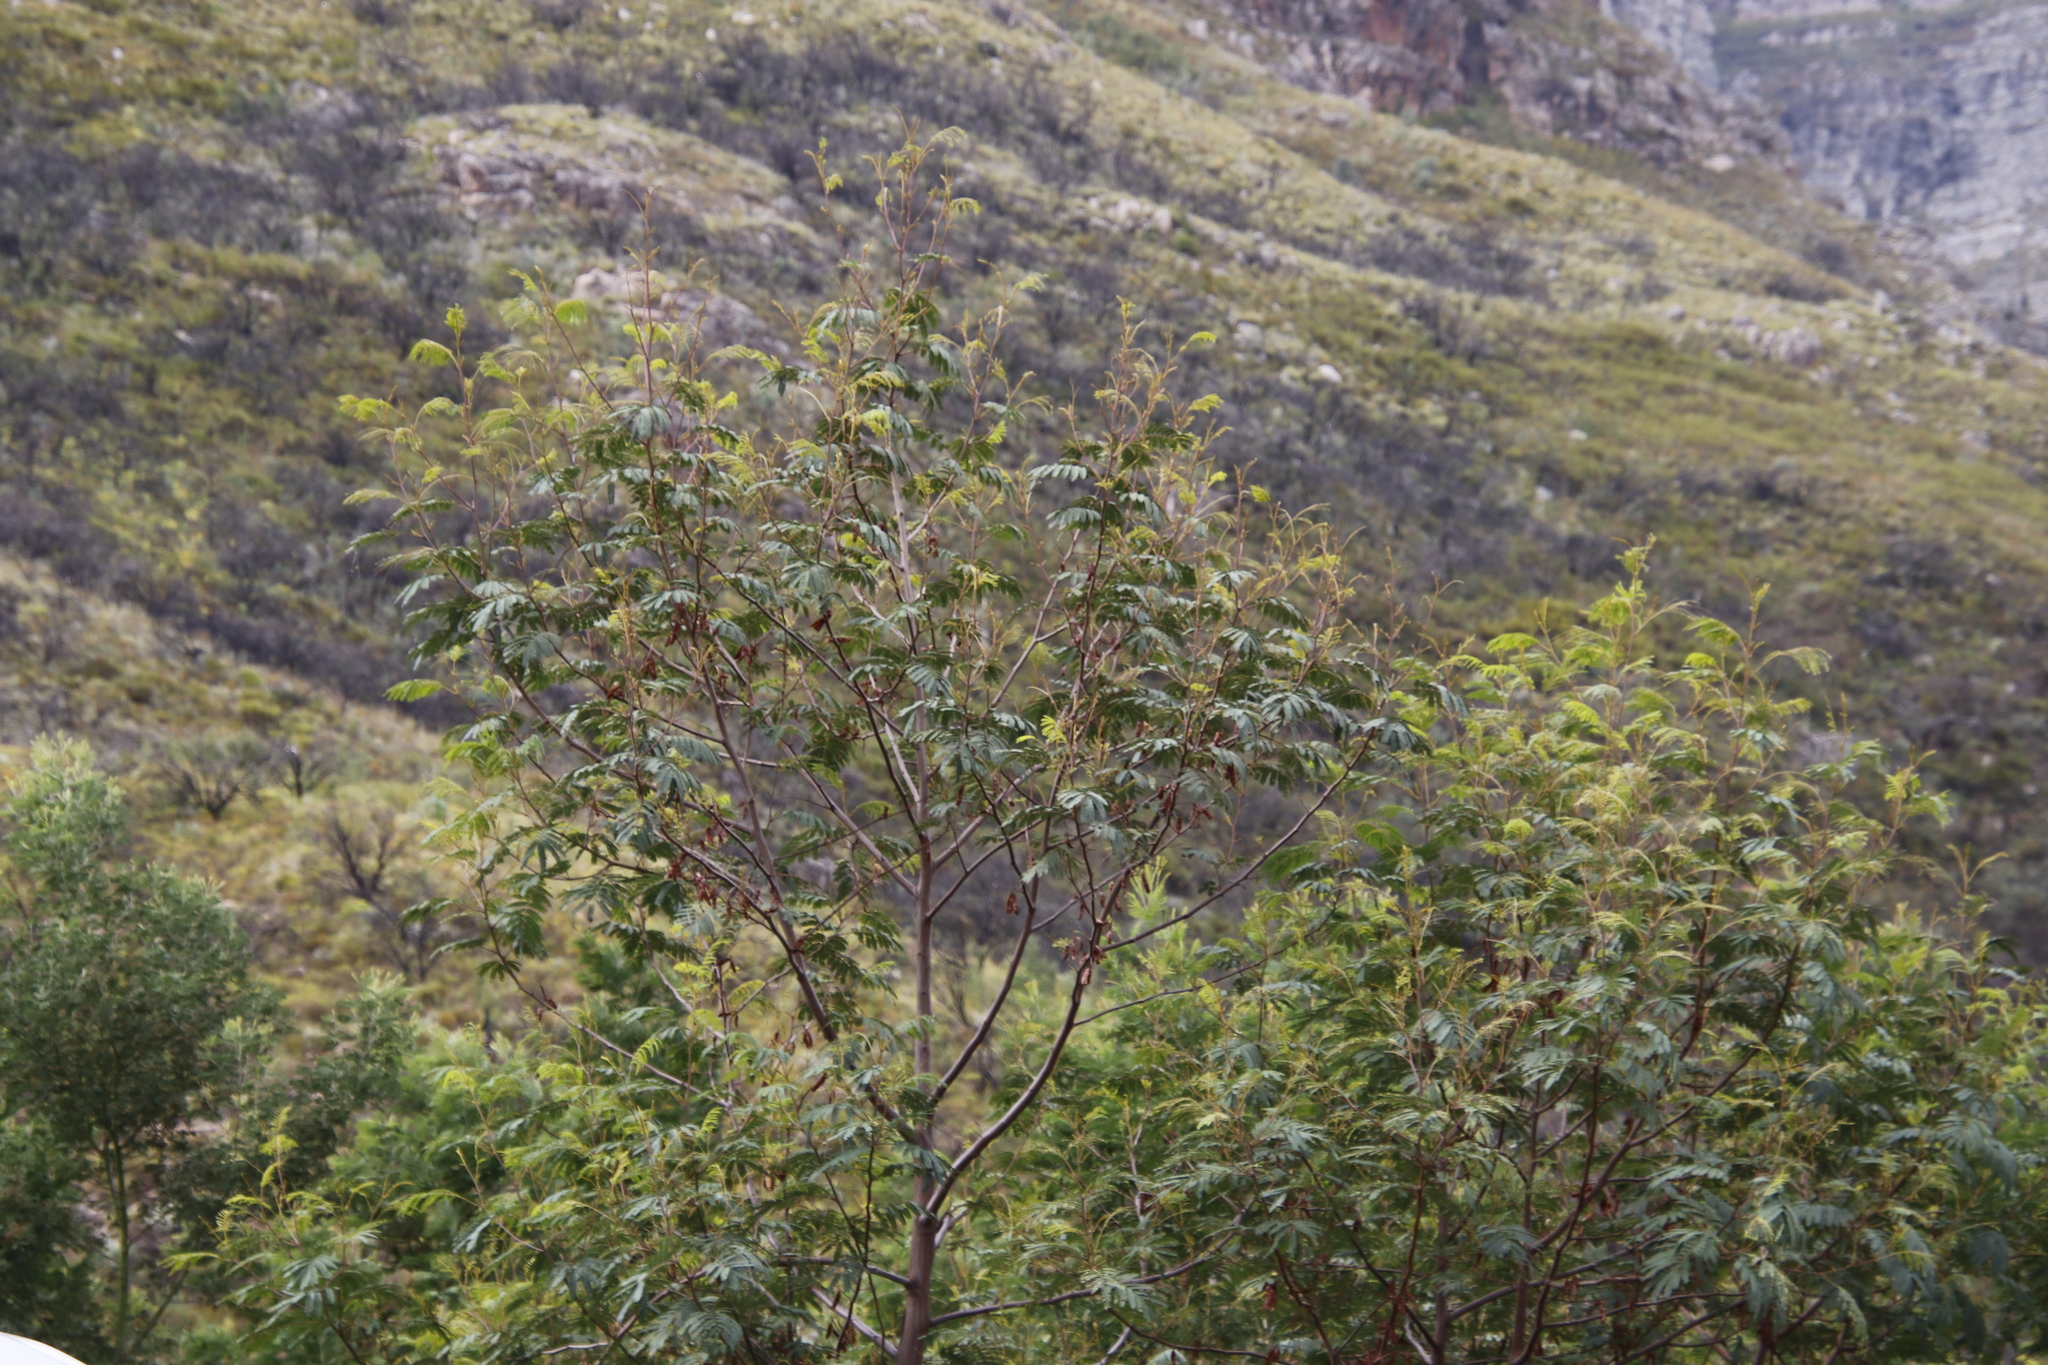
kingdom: Plantae
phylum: Tracheophyta
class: Magnoliopsida
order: Fabales
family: Fabaceae
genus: Paraserianthes
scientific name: Paraserianthes lophantha
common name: Plume albizia
